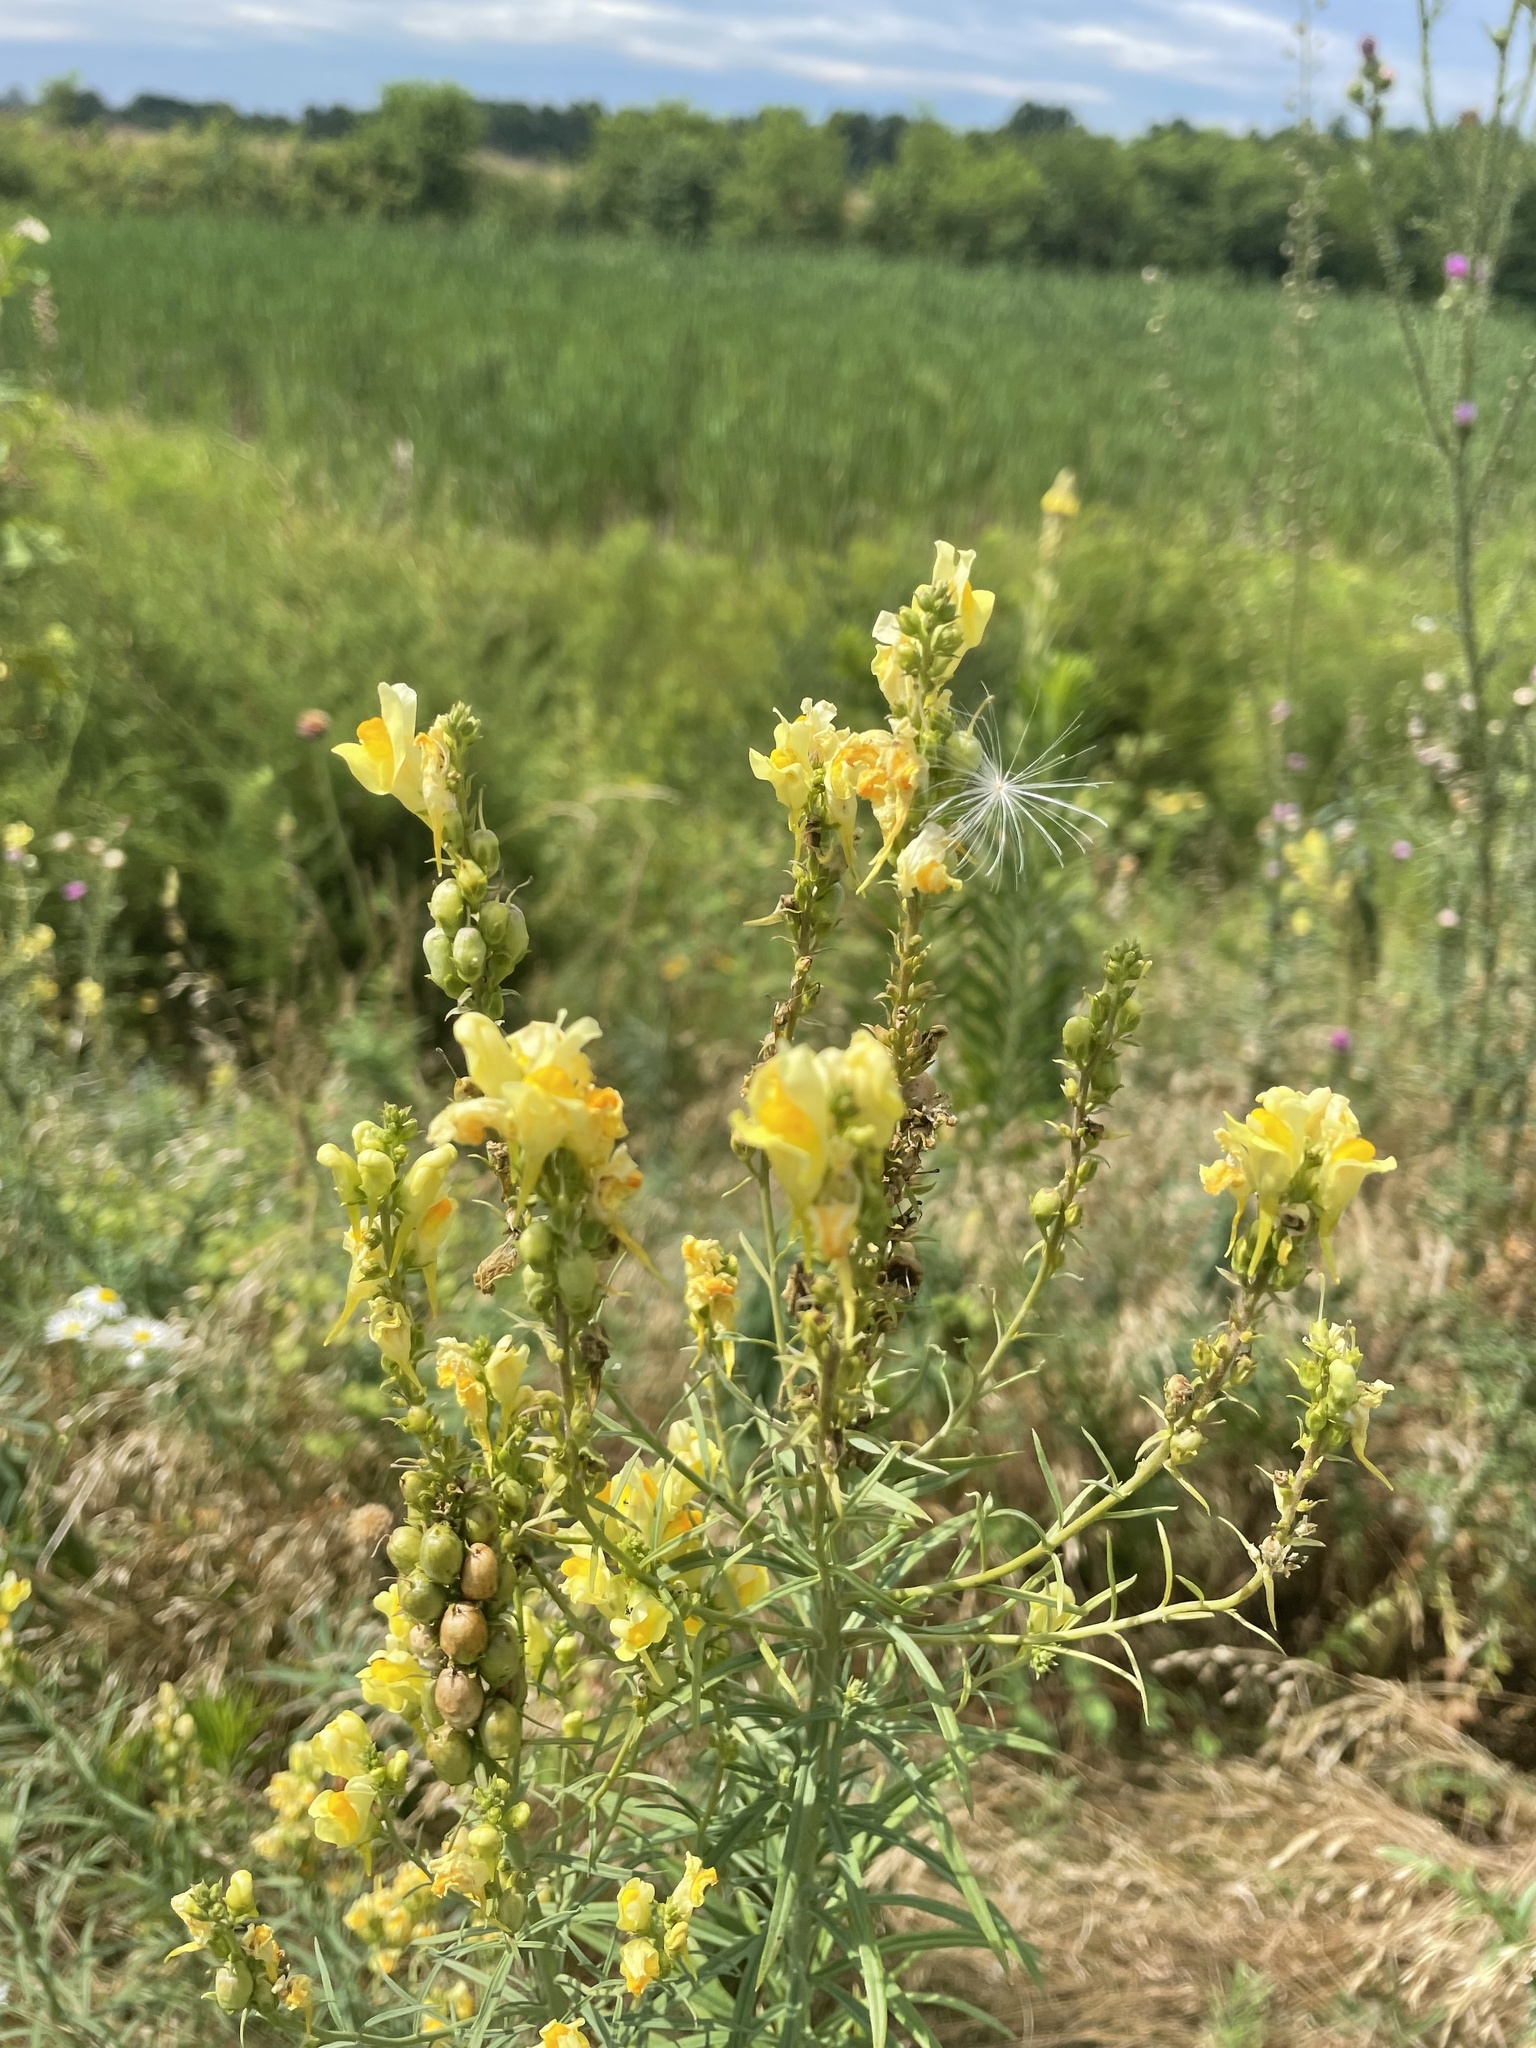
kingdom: Plantae
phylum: Tracheophyta
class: Magnoliopsida
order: Lamiales
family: Plantaginaceae
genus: Linaria
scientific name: Linaria vulgaris
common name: Butter and eggs
